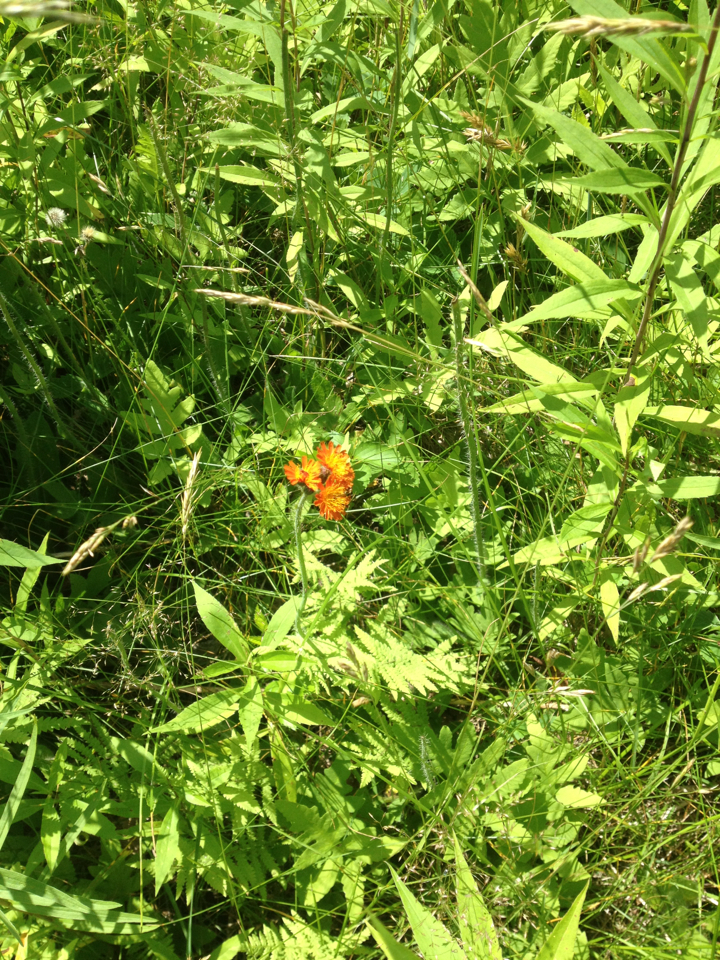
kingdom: Plantae
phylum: Tracheophyta
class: Magnoliopsida
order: Asterales
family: Asteraceae
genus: Pilosella
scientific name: Pilosella aurantiaca
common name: Fox-and-cubs
